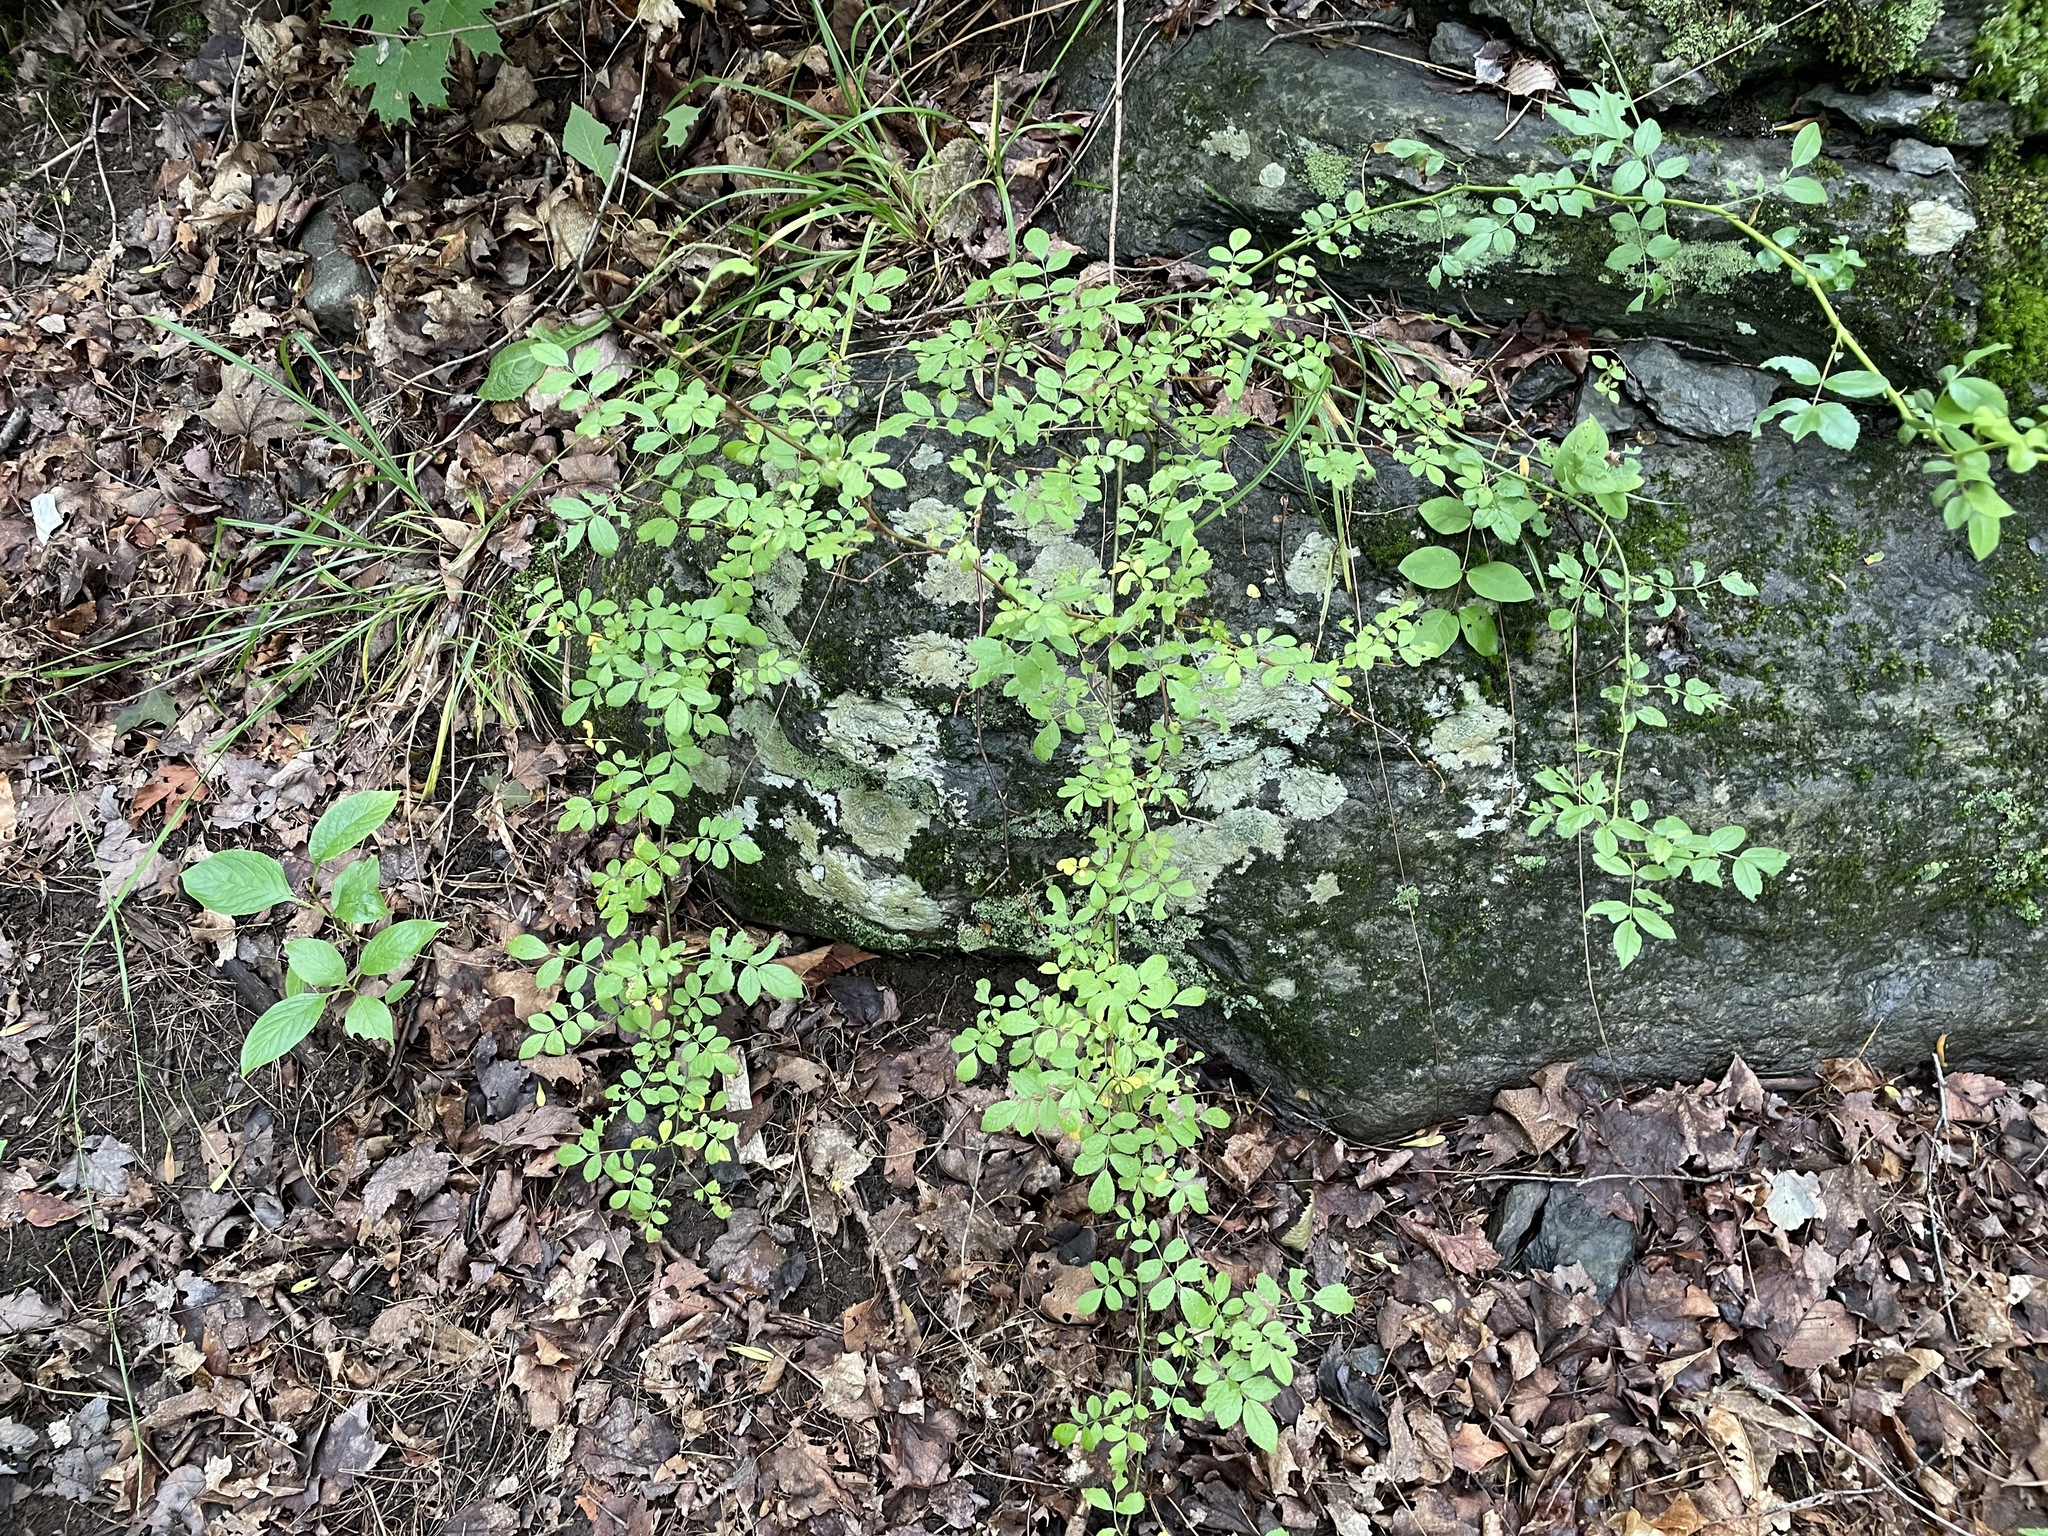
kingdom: Plantae
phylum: Tracheophyta
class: Magnoliopsida
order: Rosales
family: Rosaceae
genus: Rosa
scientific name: Rosa multiflora
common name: Multiflora rose
